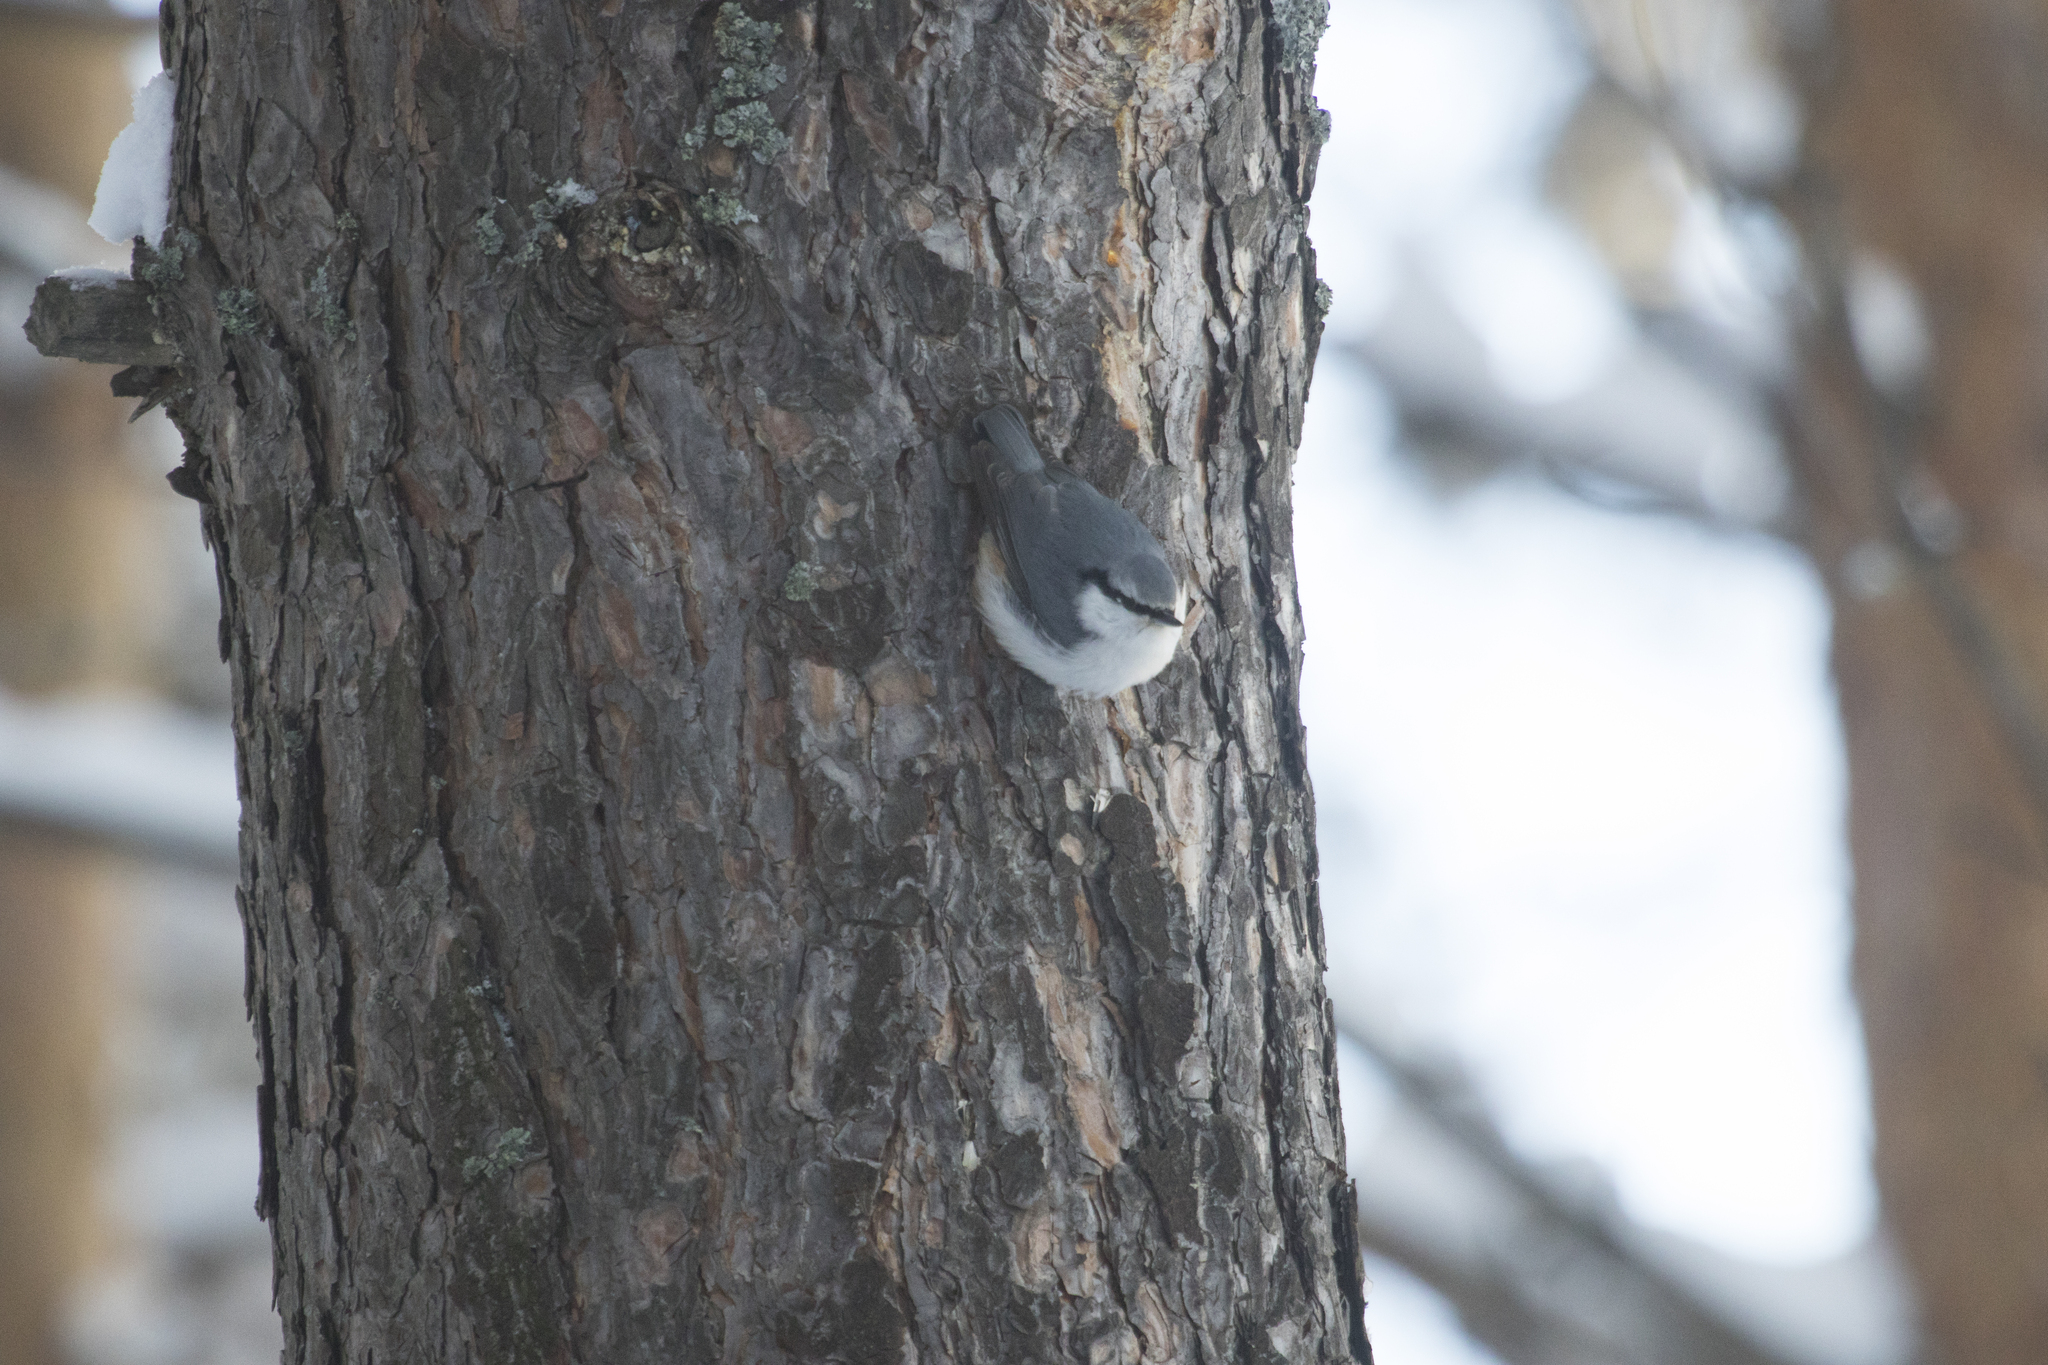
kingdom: Animalia
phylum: Chordata
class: Aves
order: Passeriformes
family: Sittidae
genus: Sitta
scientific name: Sitta europaea
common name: Eurasian nuthatch
